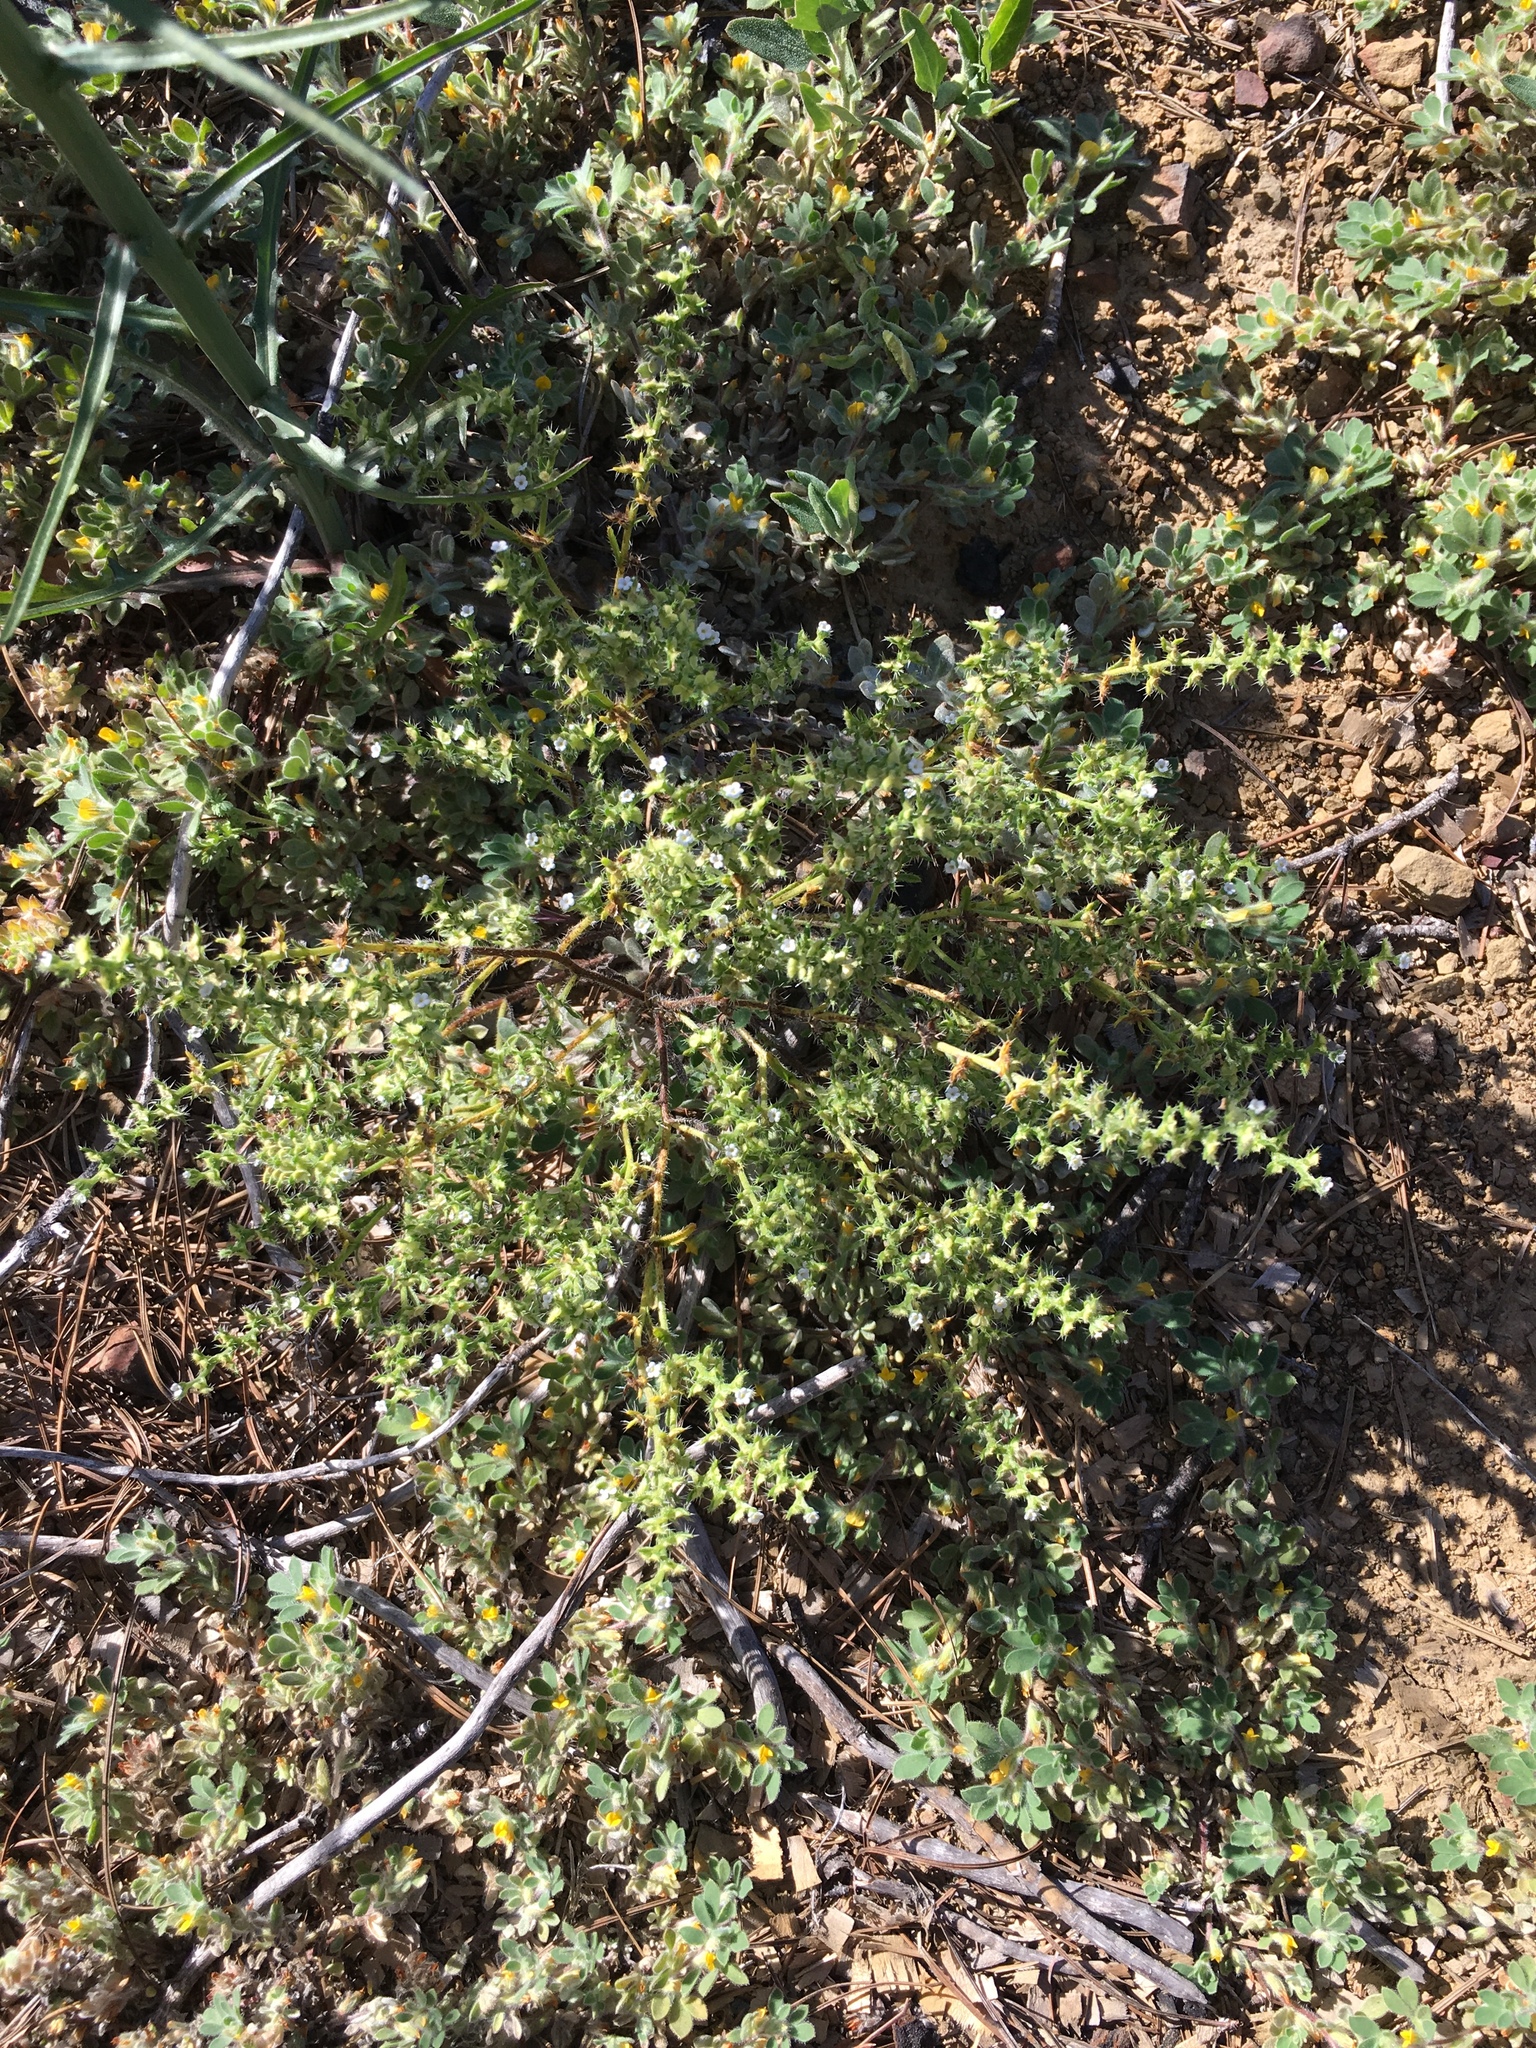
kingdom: Plantae
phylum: Tracheophyta
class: Magnoliopsida
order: Boraginales
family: Boraginaceae
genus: Pectocarya
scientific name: Pectocarya setosa
